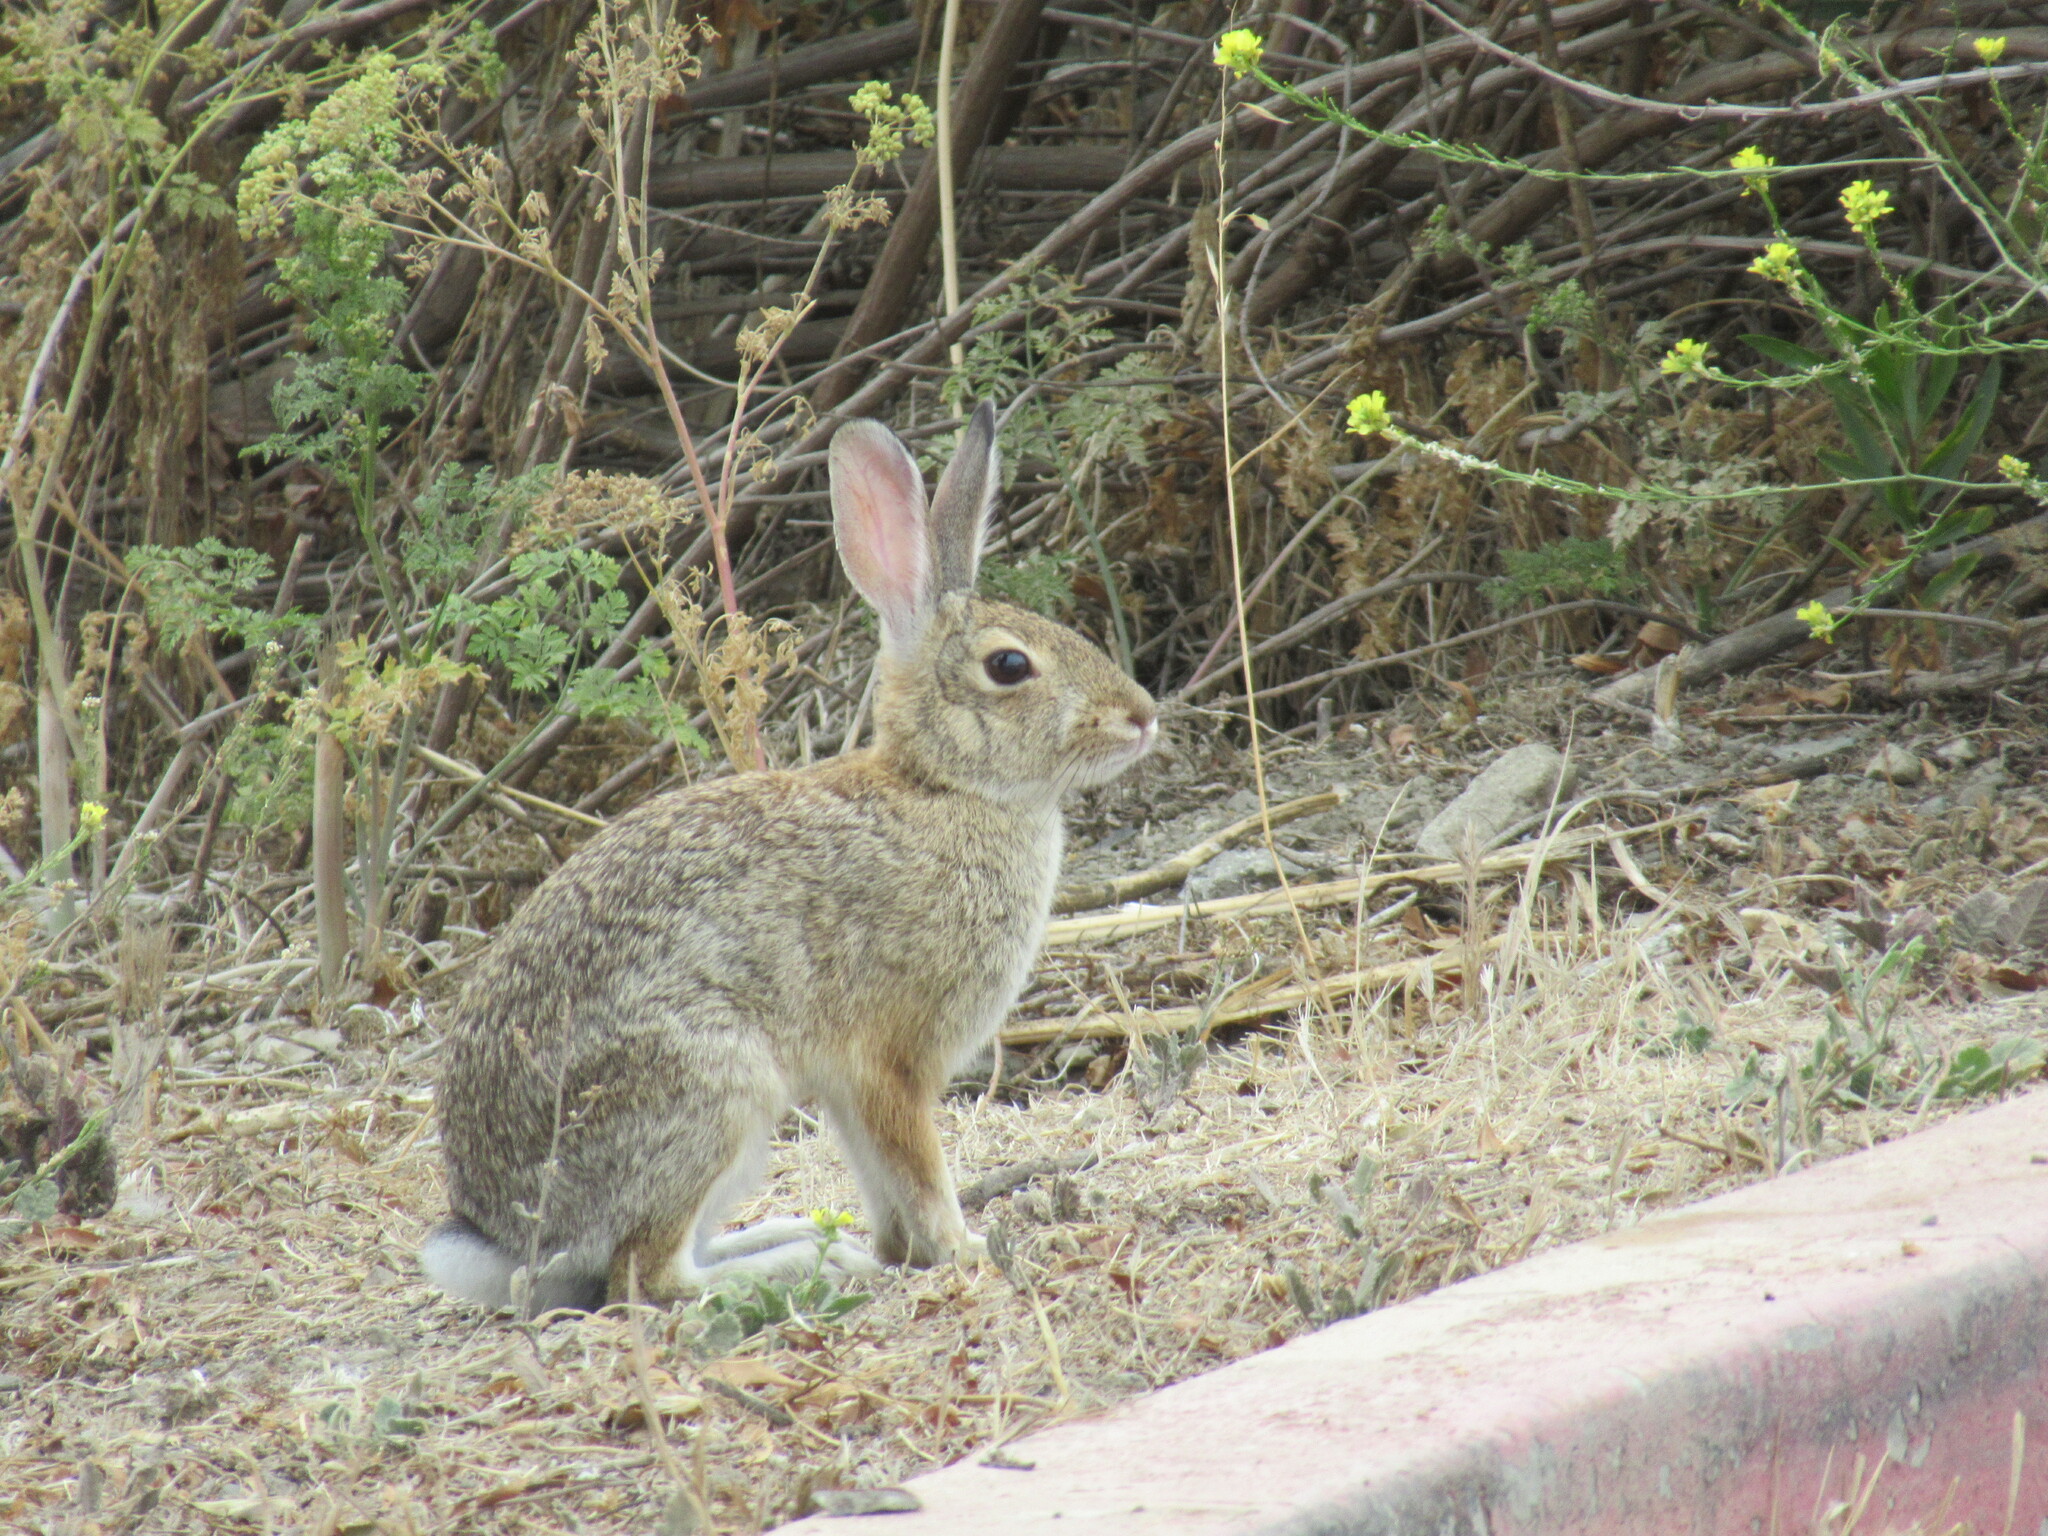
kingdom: Animalia
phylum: Chordata
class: Mammalia
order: Lagomorpha
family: Leporidae
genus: Sylvilagus
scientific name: Sylvilagus audubonii
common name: Desert cottontail
